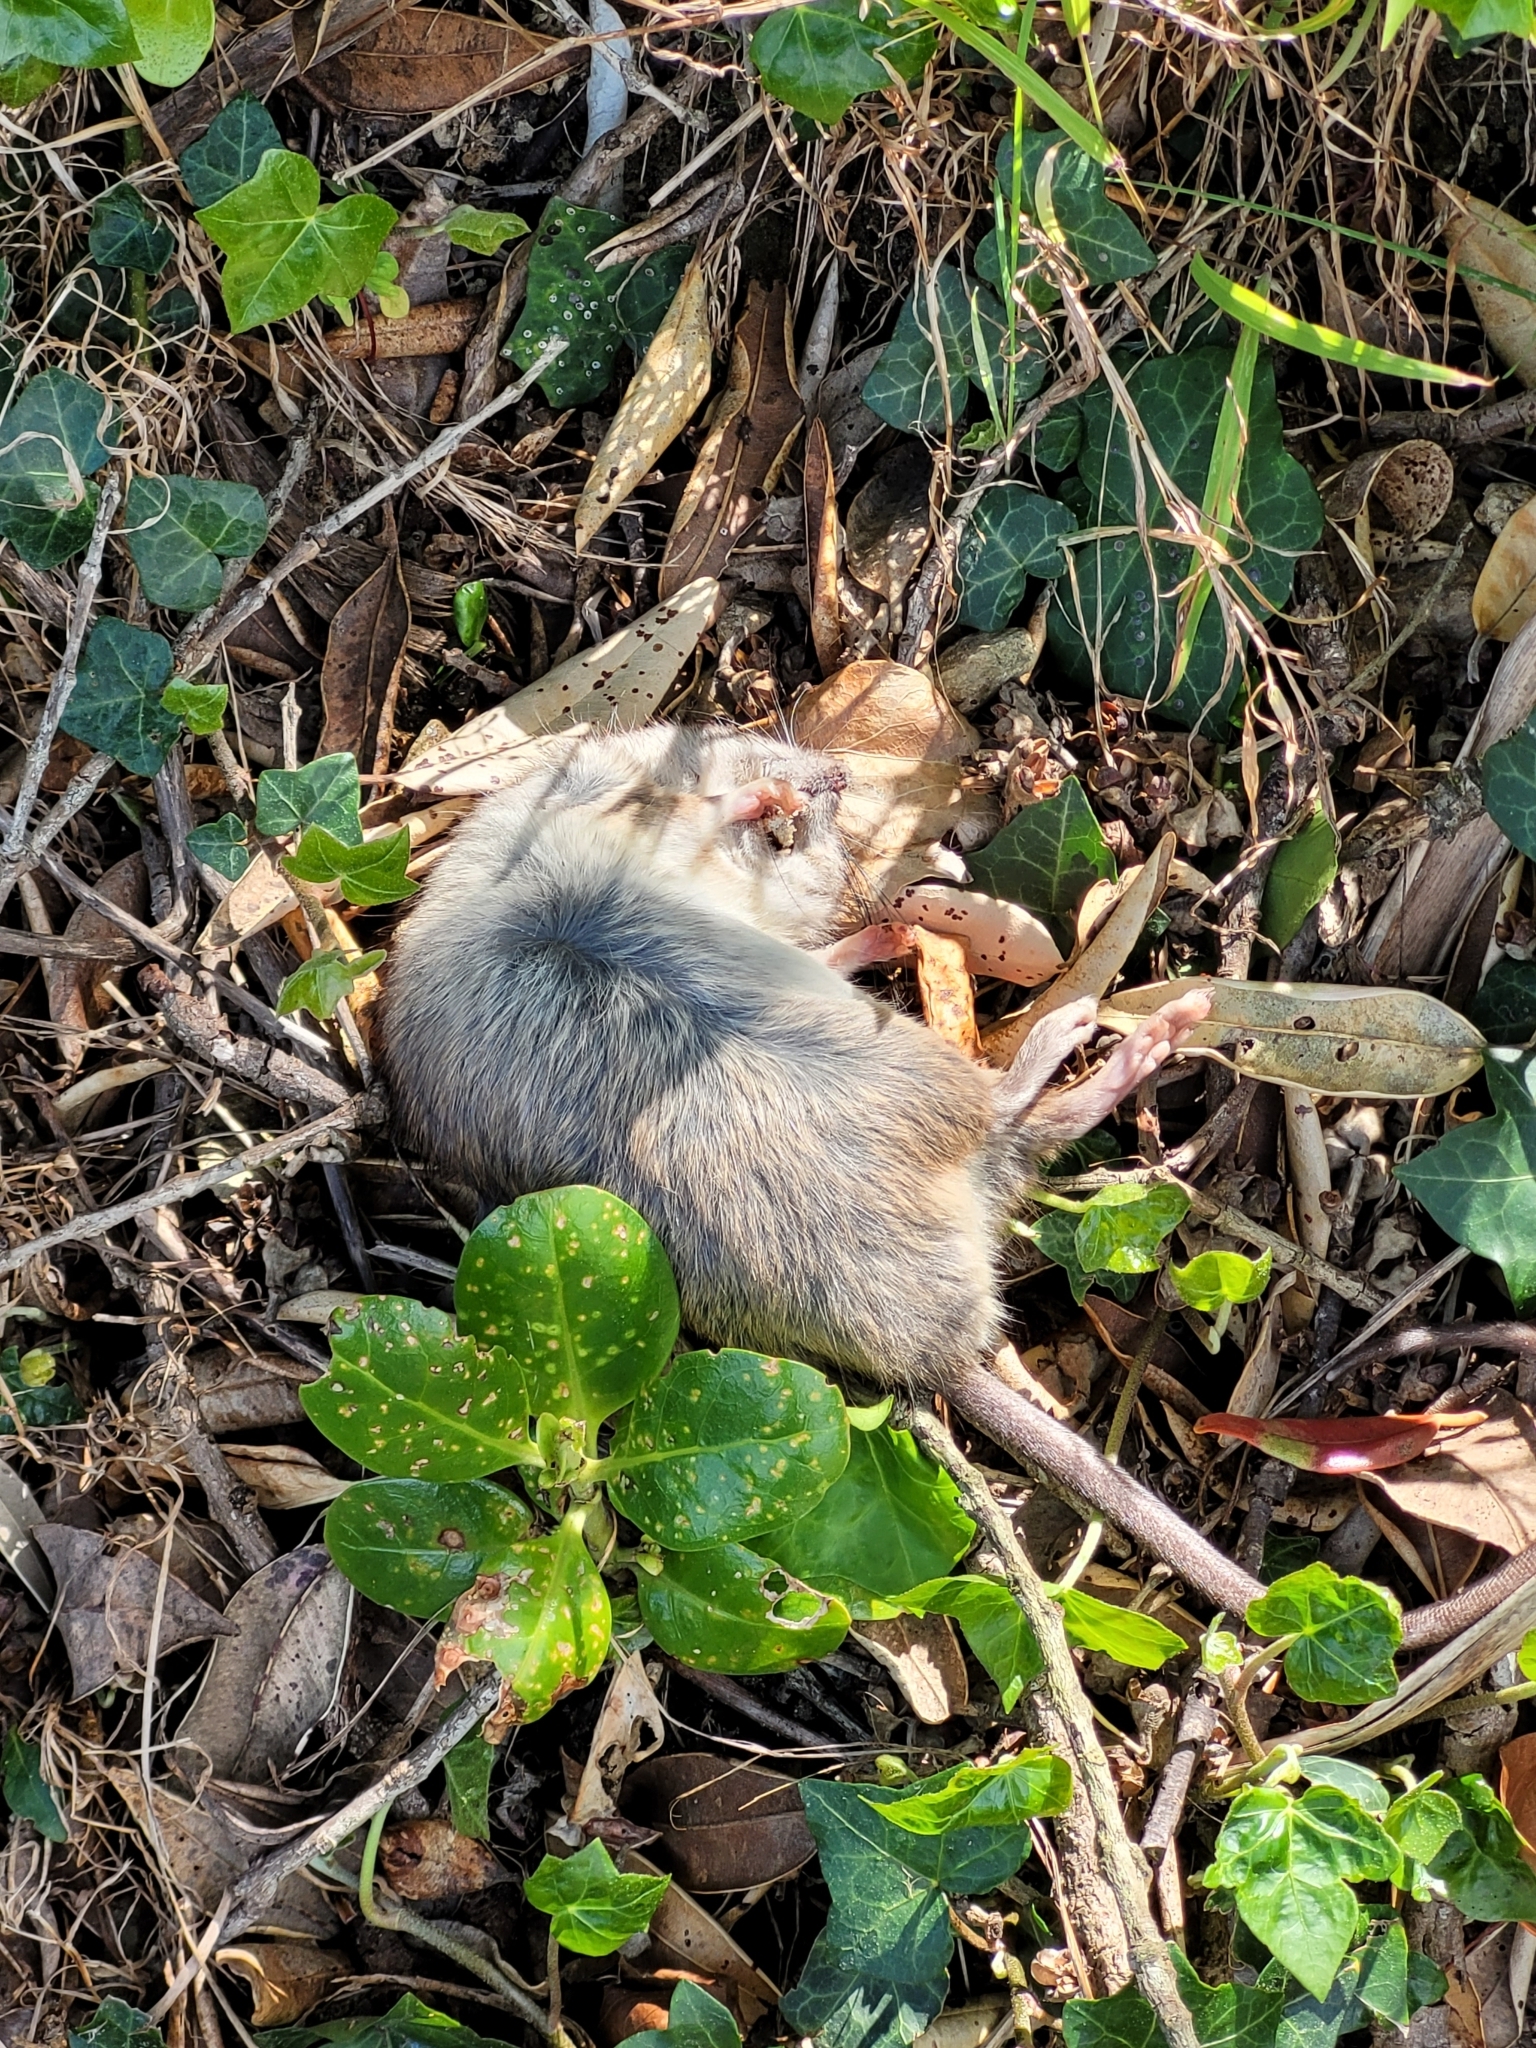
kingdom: Animalia
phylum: Chordata
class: Mammalia
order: Rodentia
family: Muridae
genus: Rattus
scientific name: Rattus rattus
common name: Black rat
